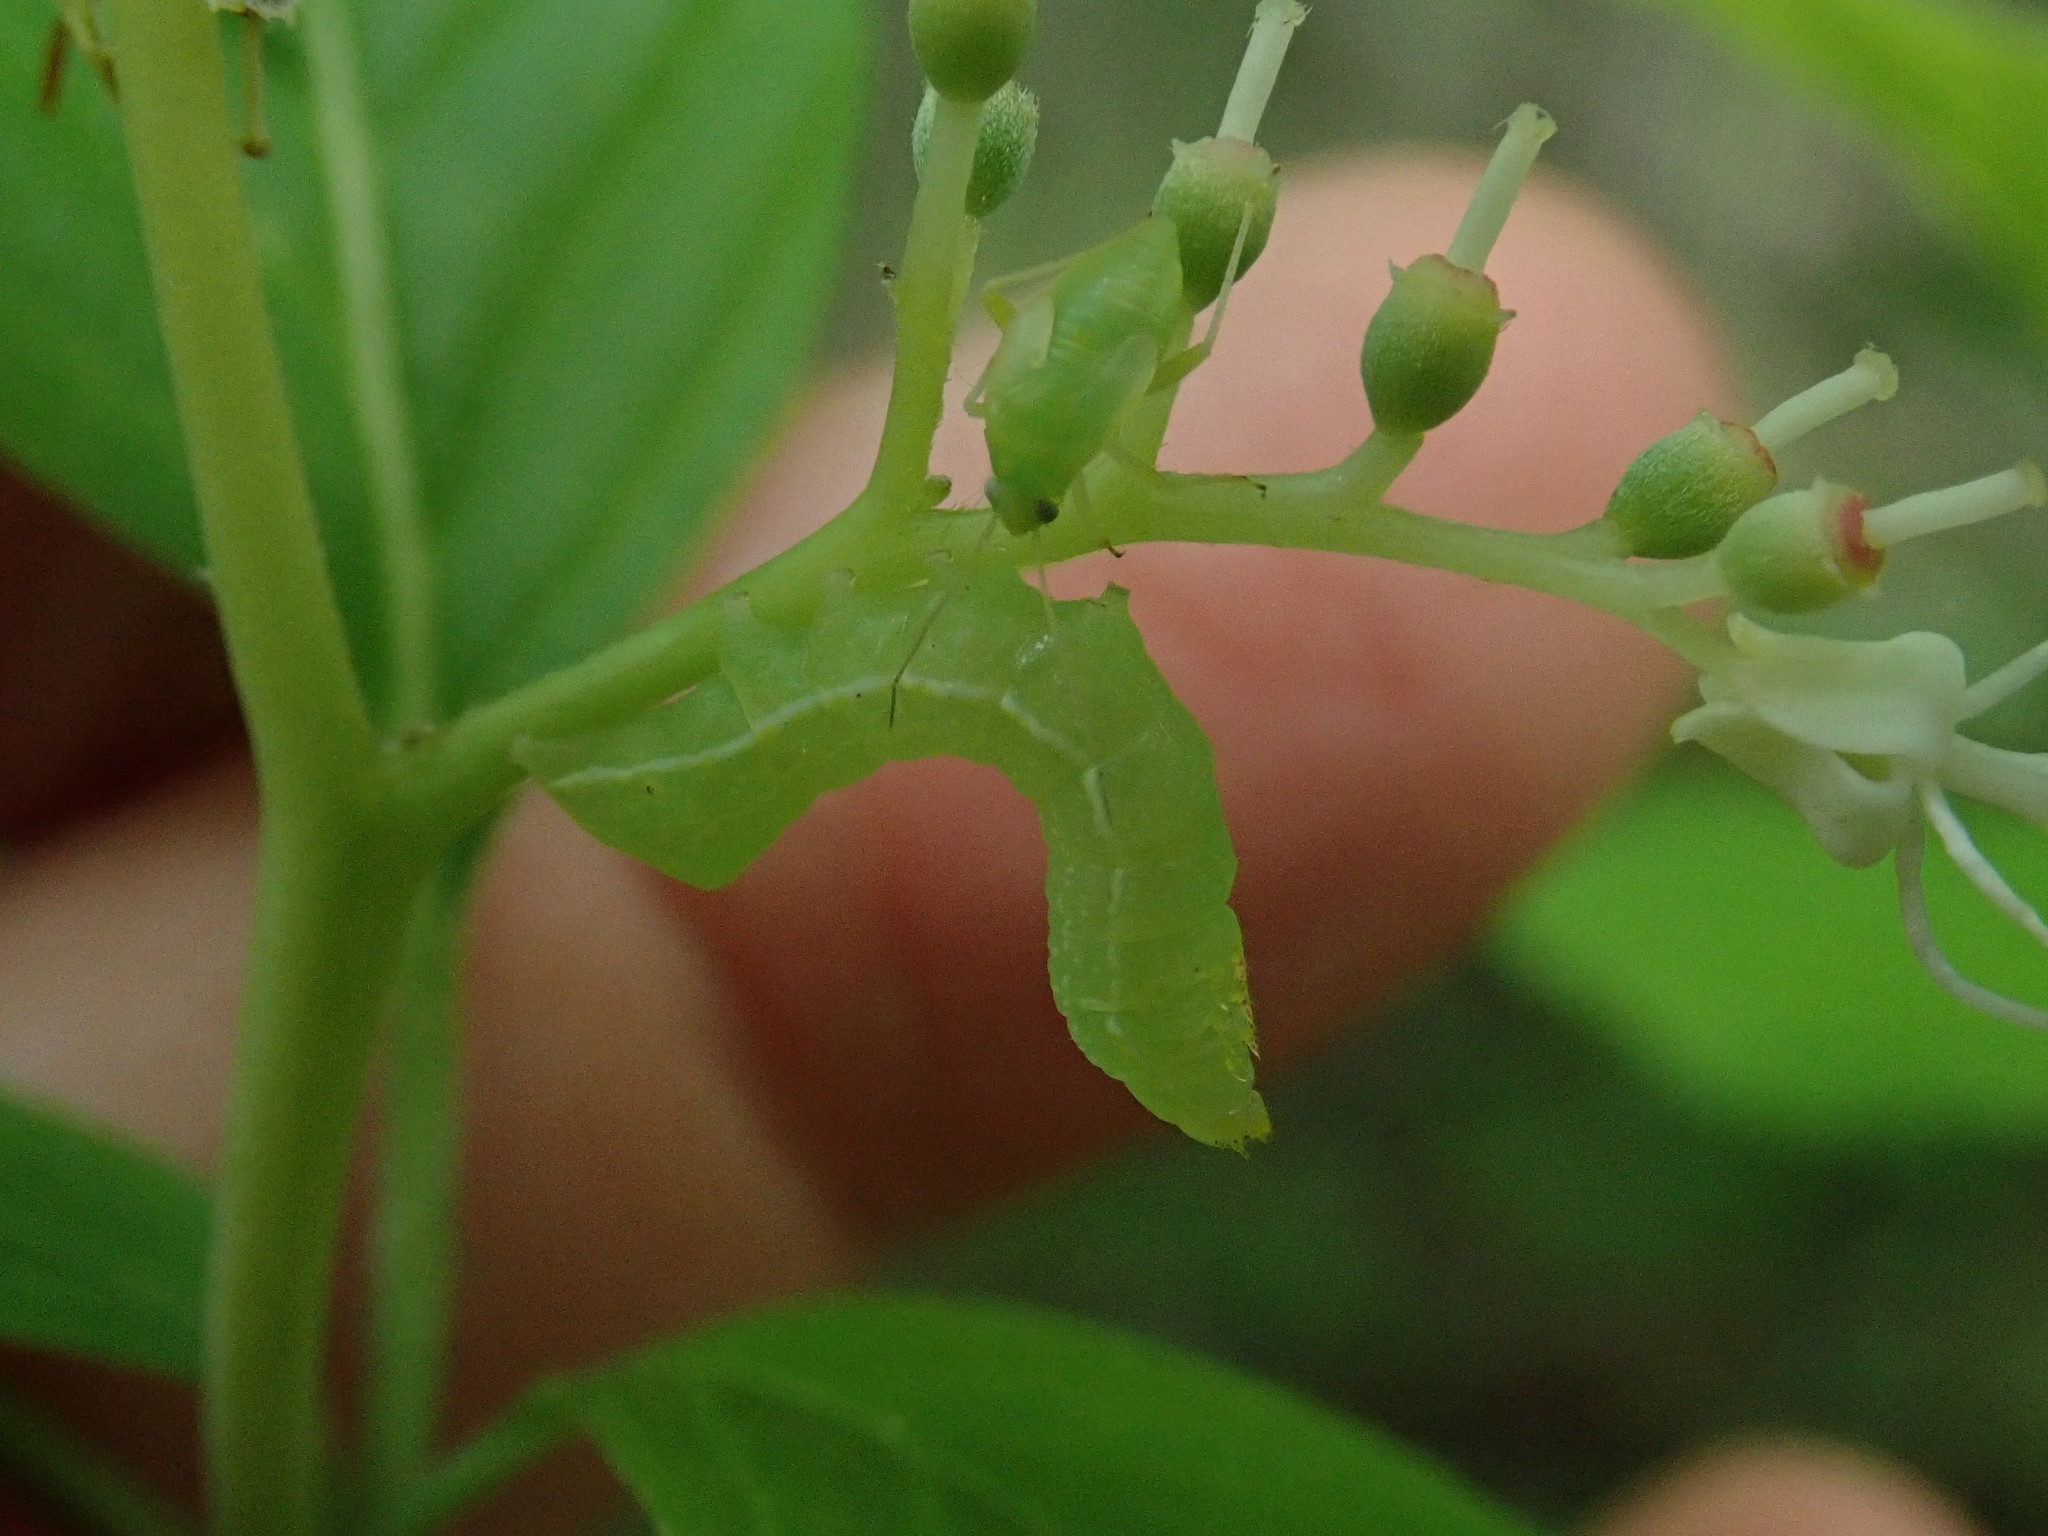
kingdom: Animalia
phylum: Arthropoda
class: Insecta
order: Lepidoptera
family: Noctuidae
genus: Amphipyra
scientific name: Amphipyra pyramidoides
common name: American copper underwing
